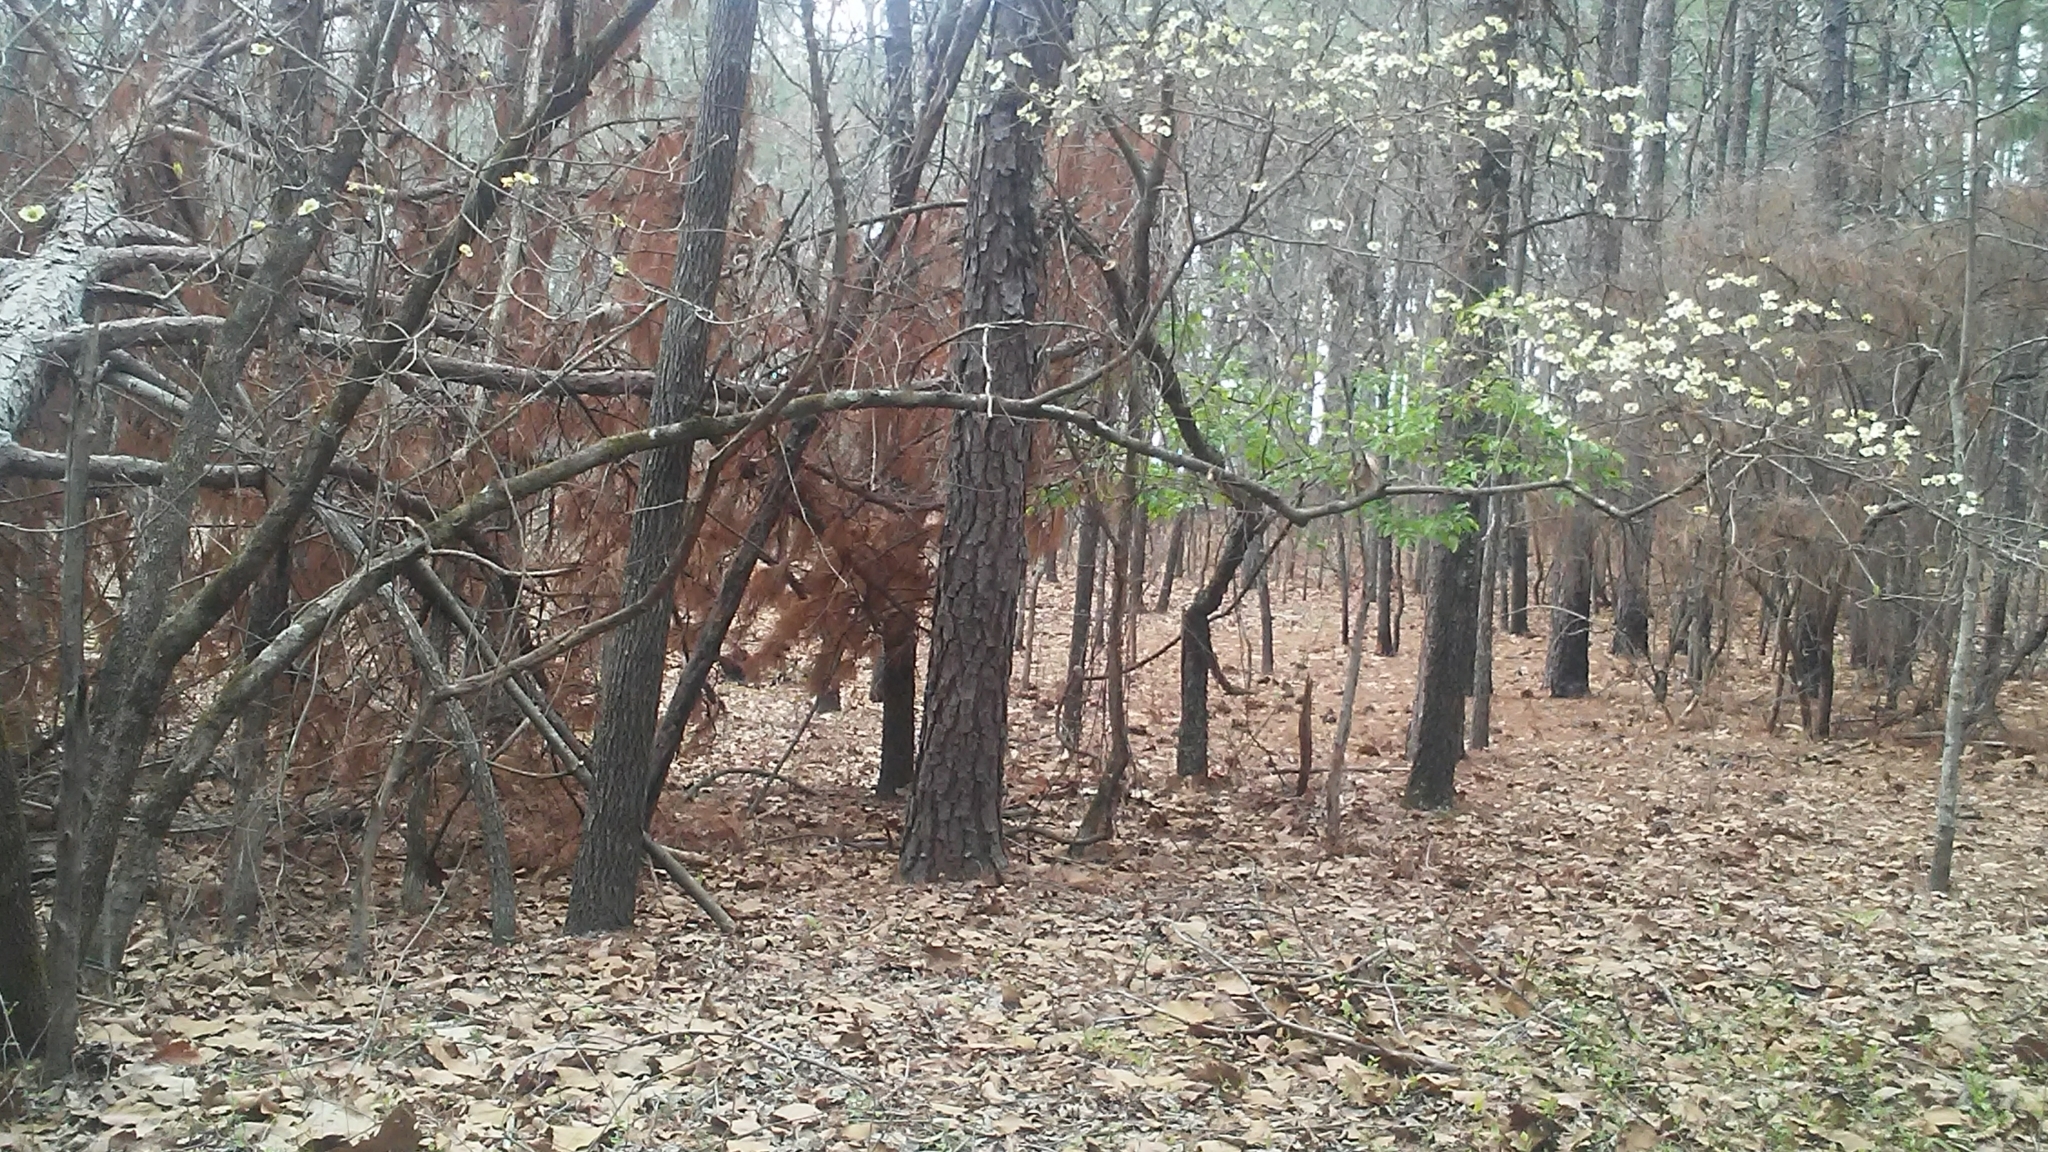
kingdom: Plantae
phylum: Tracheophyta
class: Magnoliopsida
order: Cornales
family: Cornaceae
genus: Cornus
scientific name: Cornus florida
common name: Flowering dogwood
